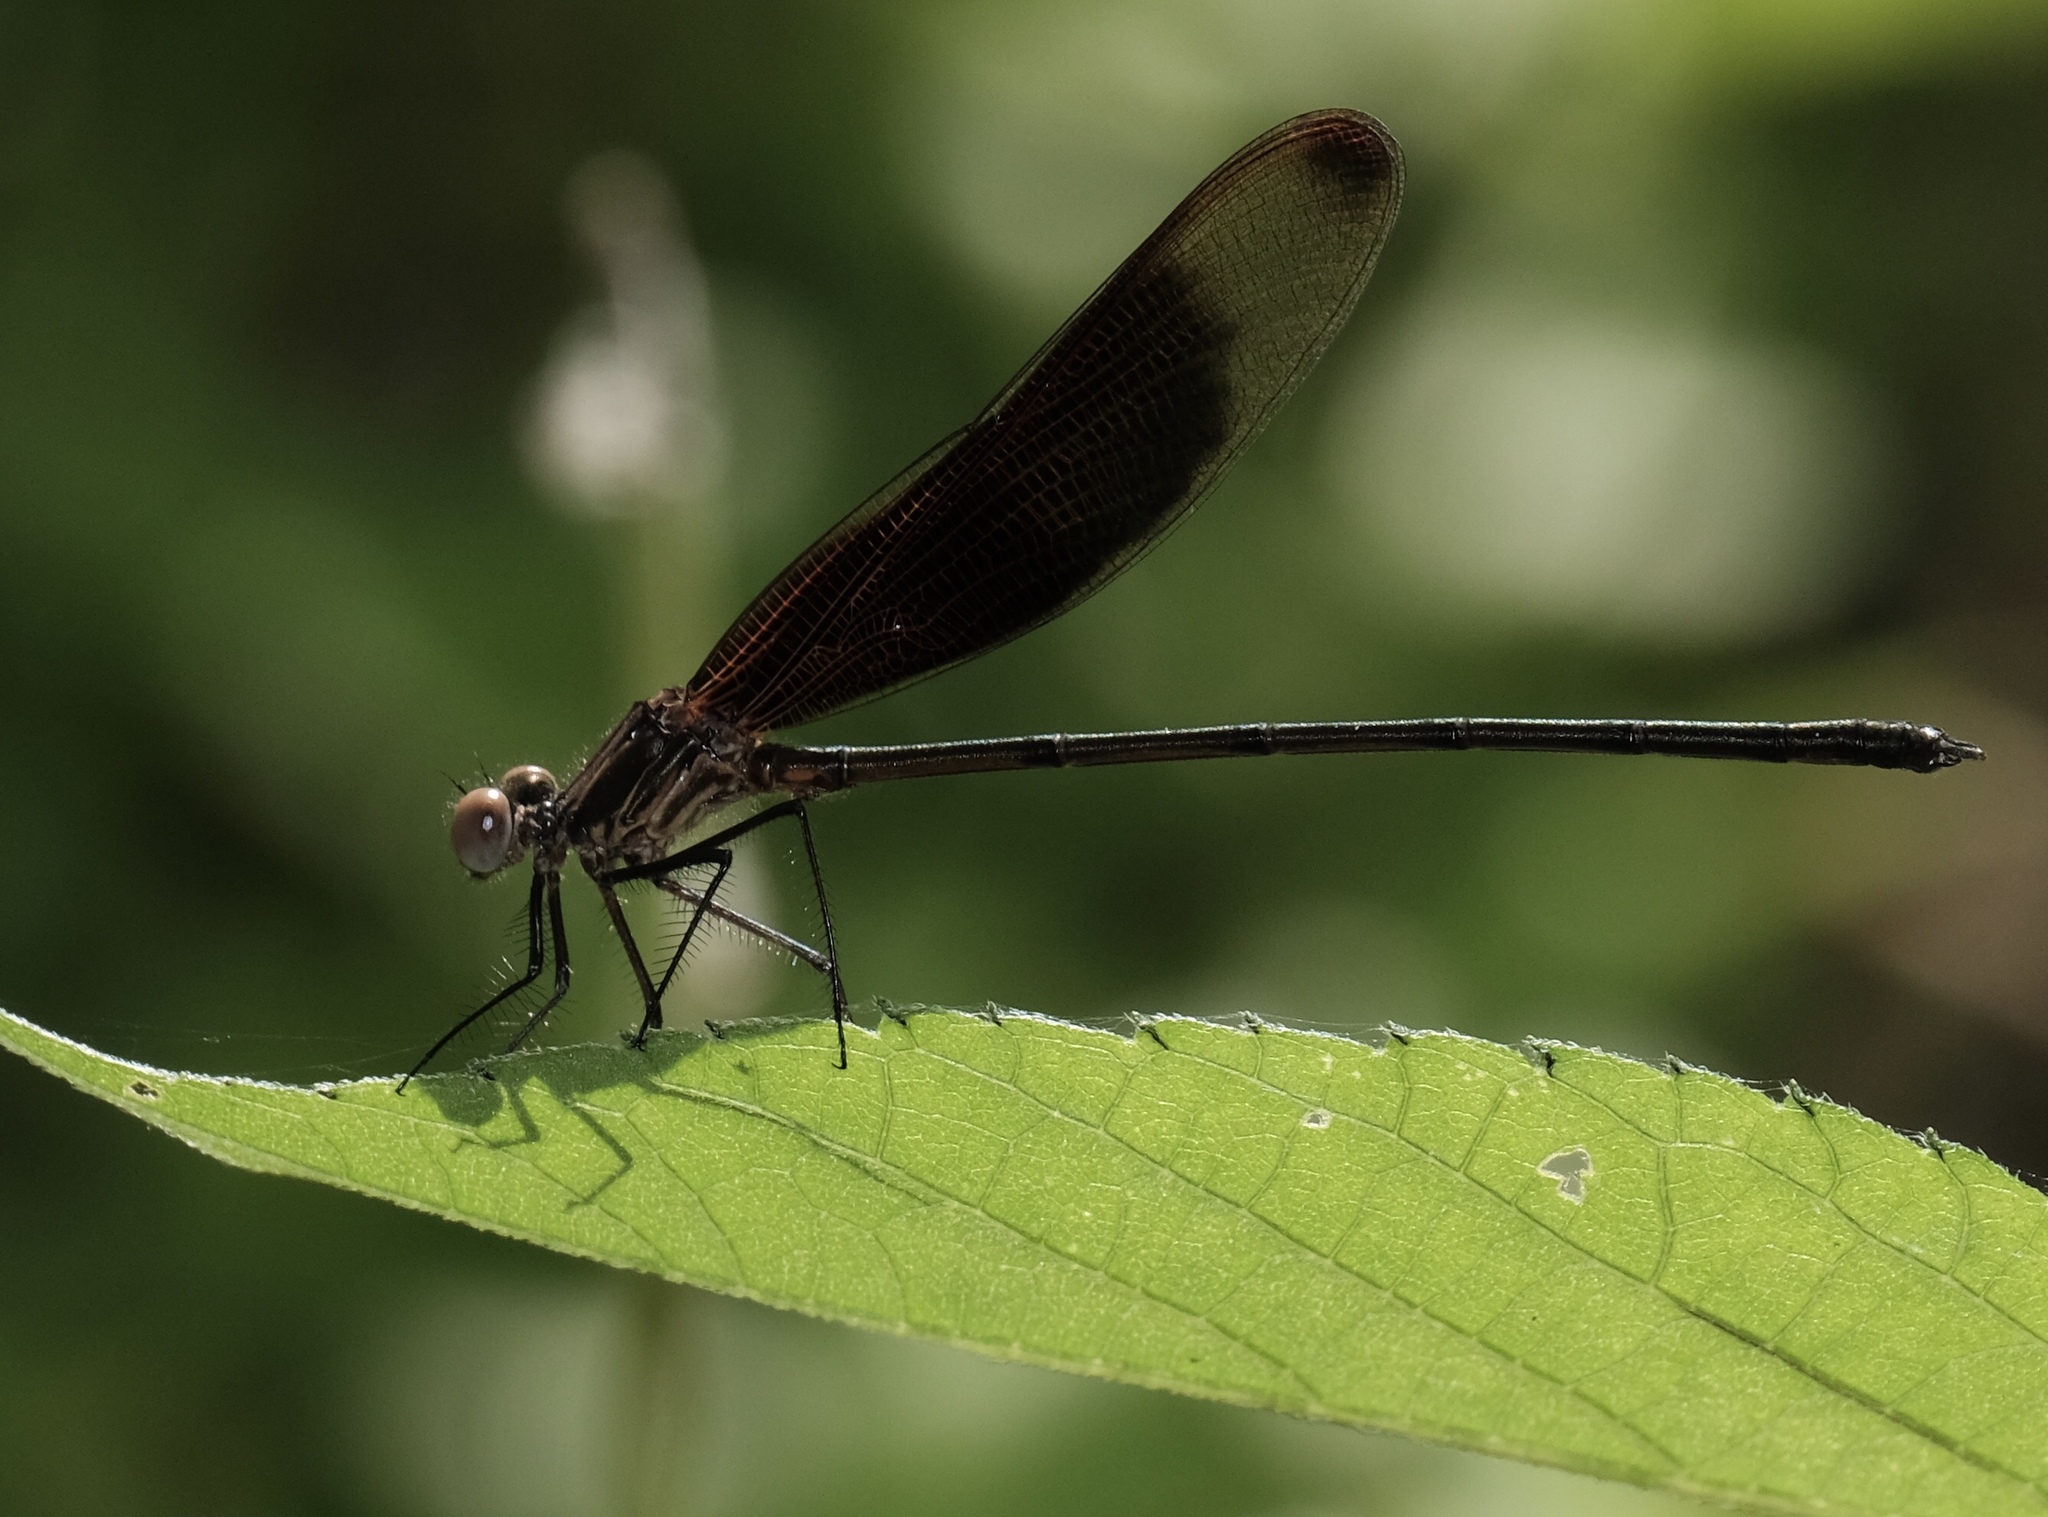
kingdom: Animalia
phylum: Arthropoda
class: Insecta
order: Odonata
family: Calopterygidae
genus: Hetaerina
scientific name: Hetaerina titia
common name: Smoky rubyspot
